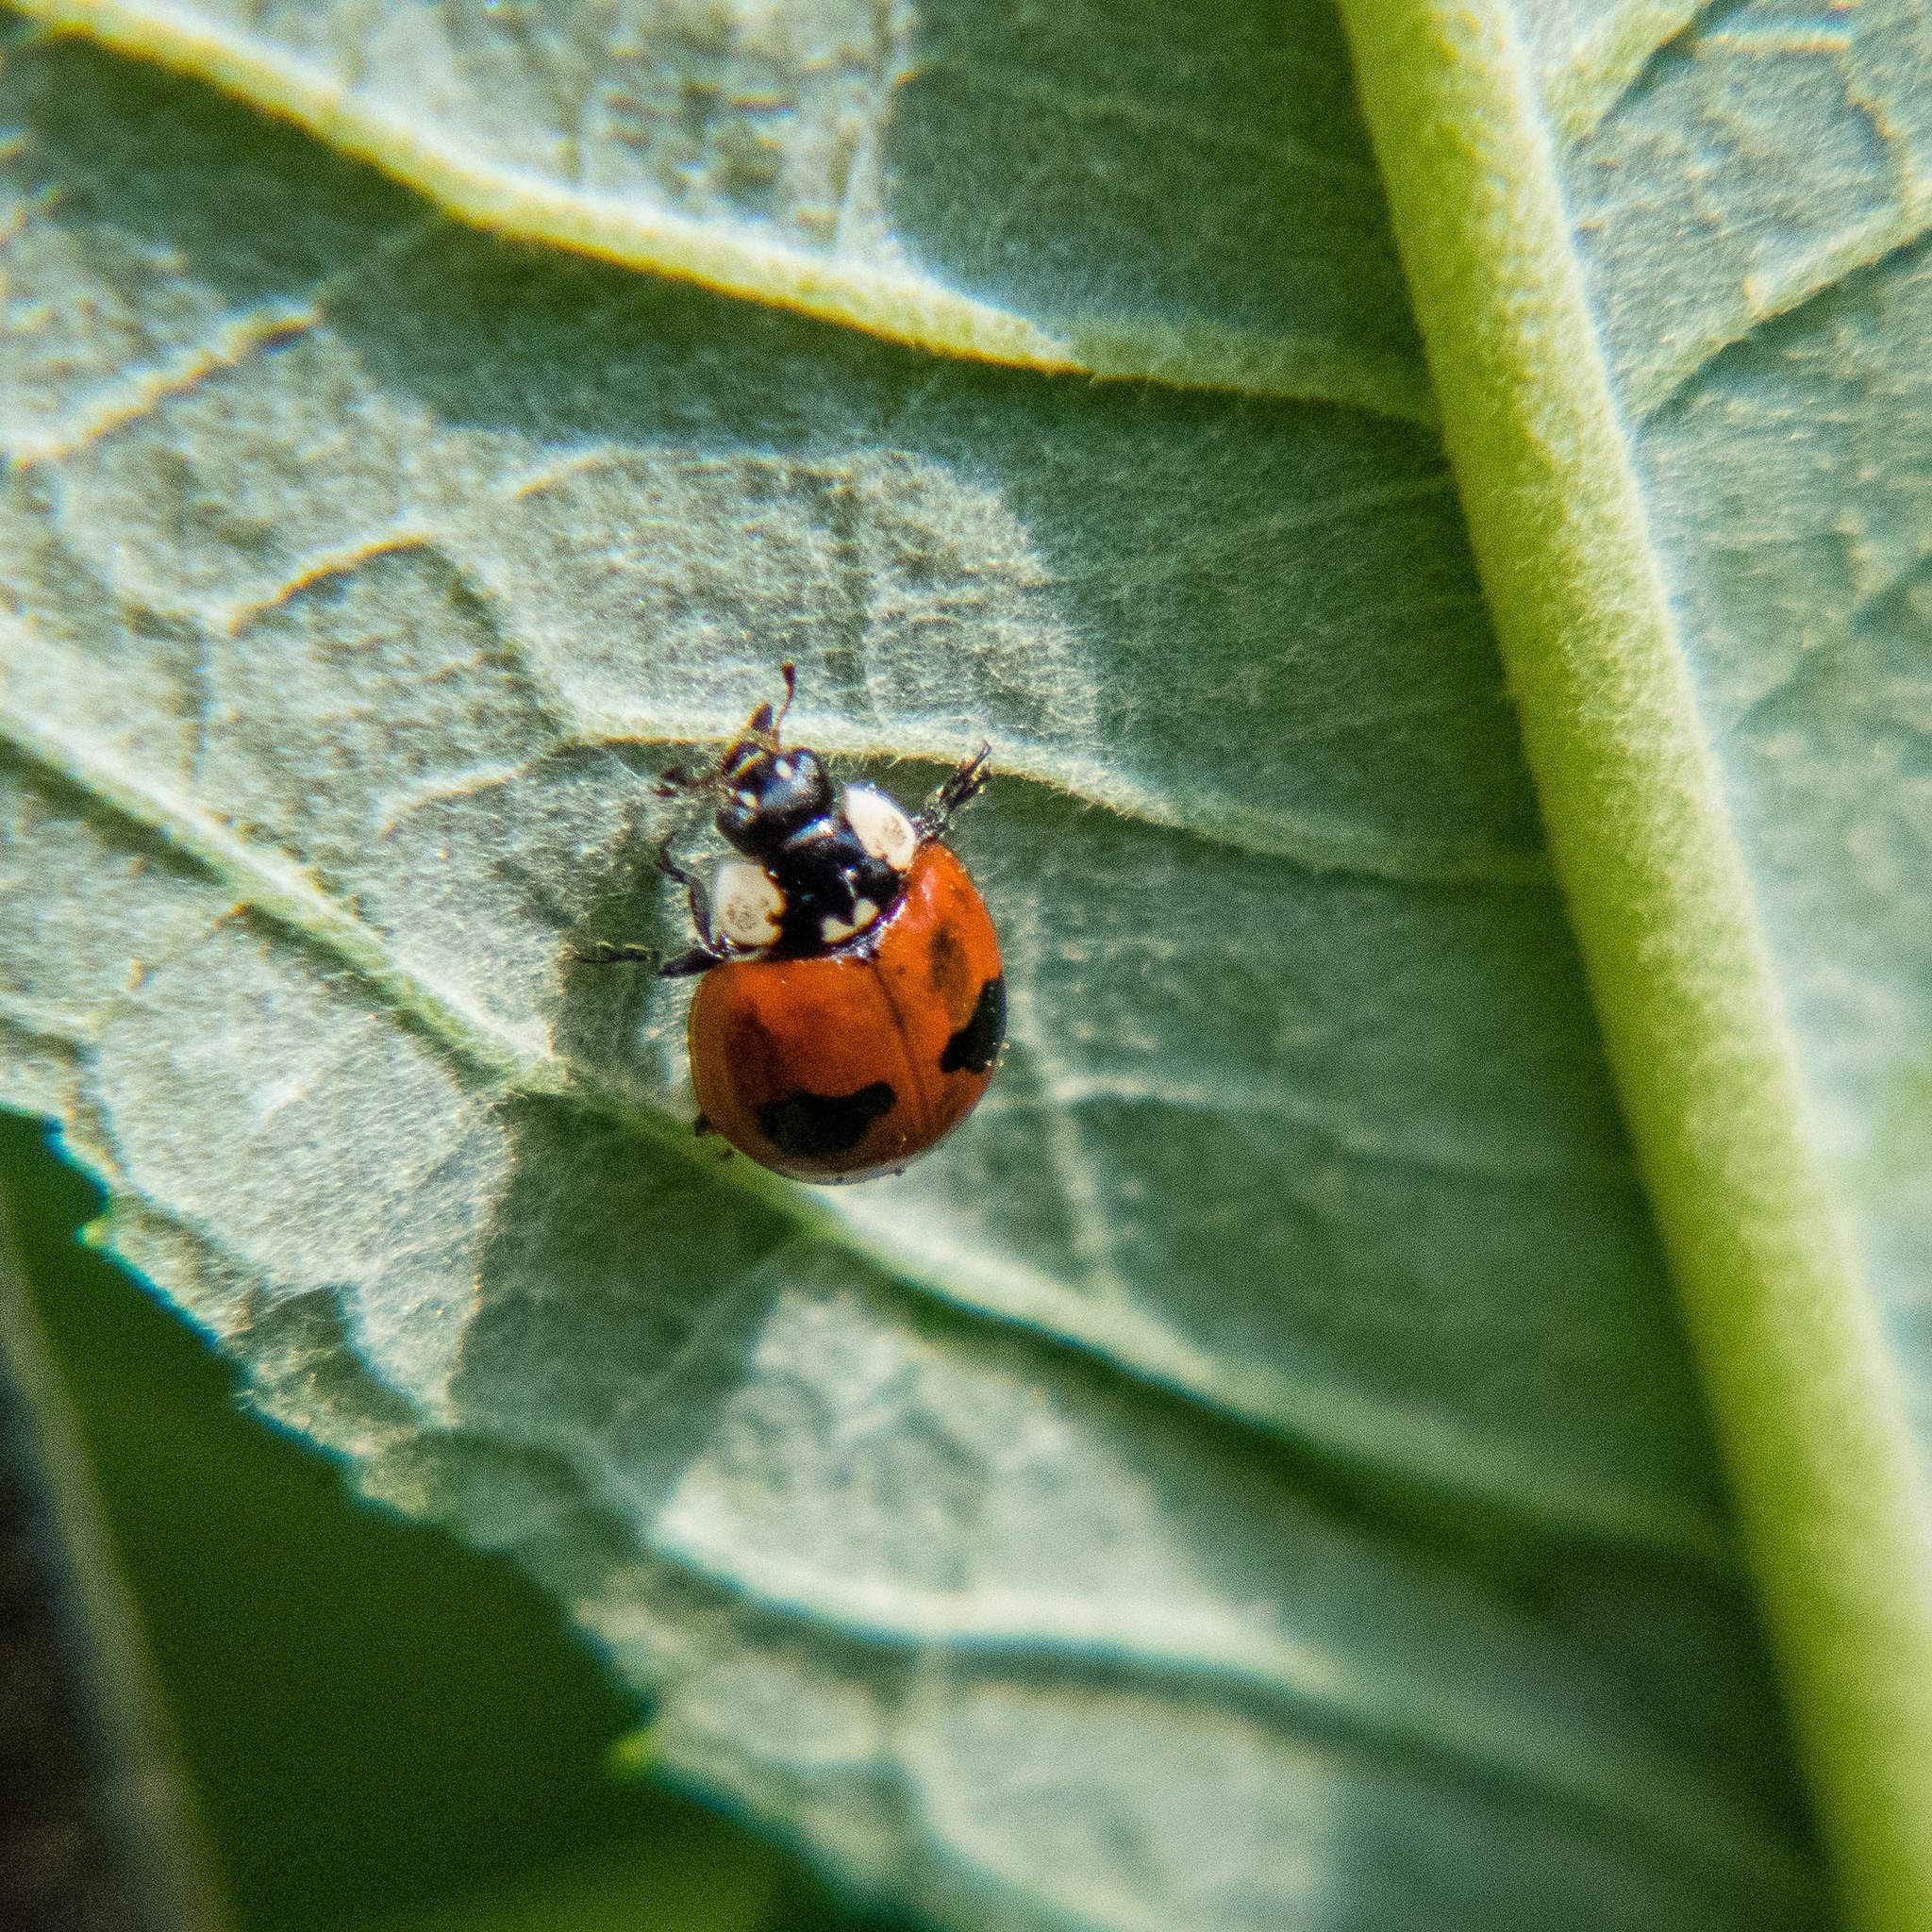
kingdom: Animalia
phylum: Arthropoda
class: Insecta
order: Coleoptera
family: Coccinellidae
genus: Adalia
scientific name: Adalia bipunctata
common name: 2-spot ladybird
